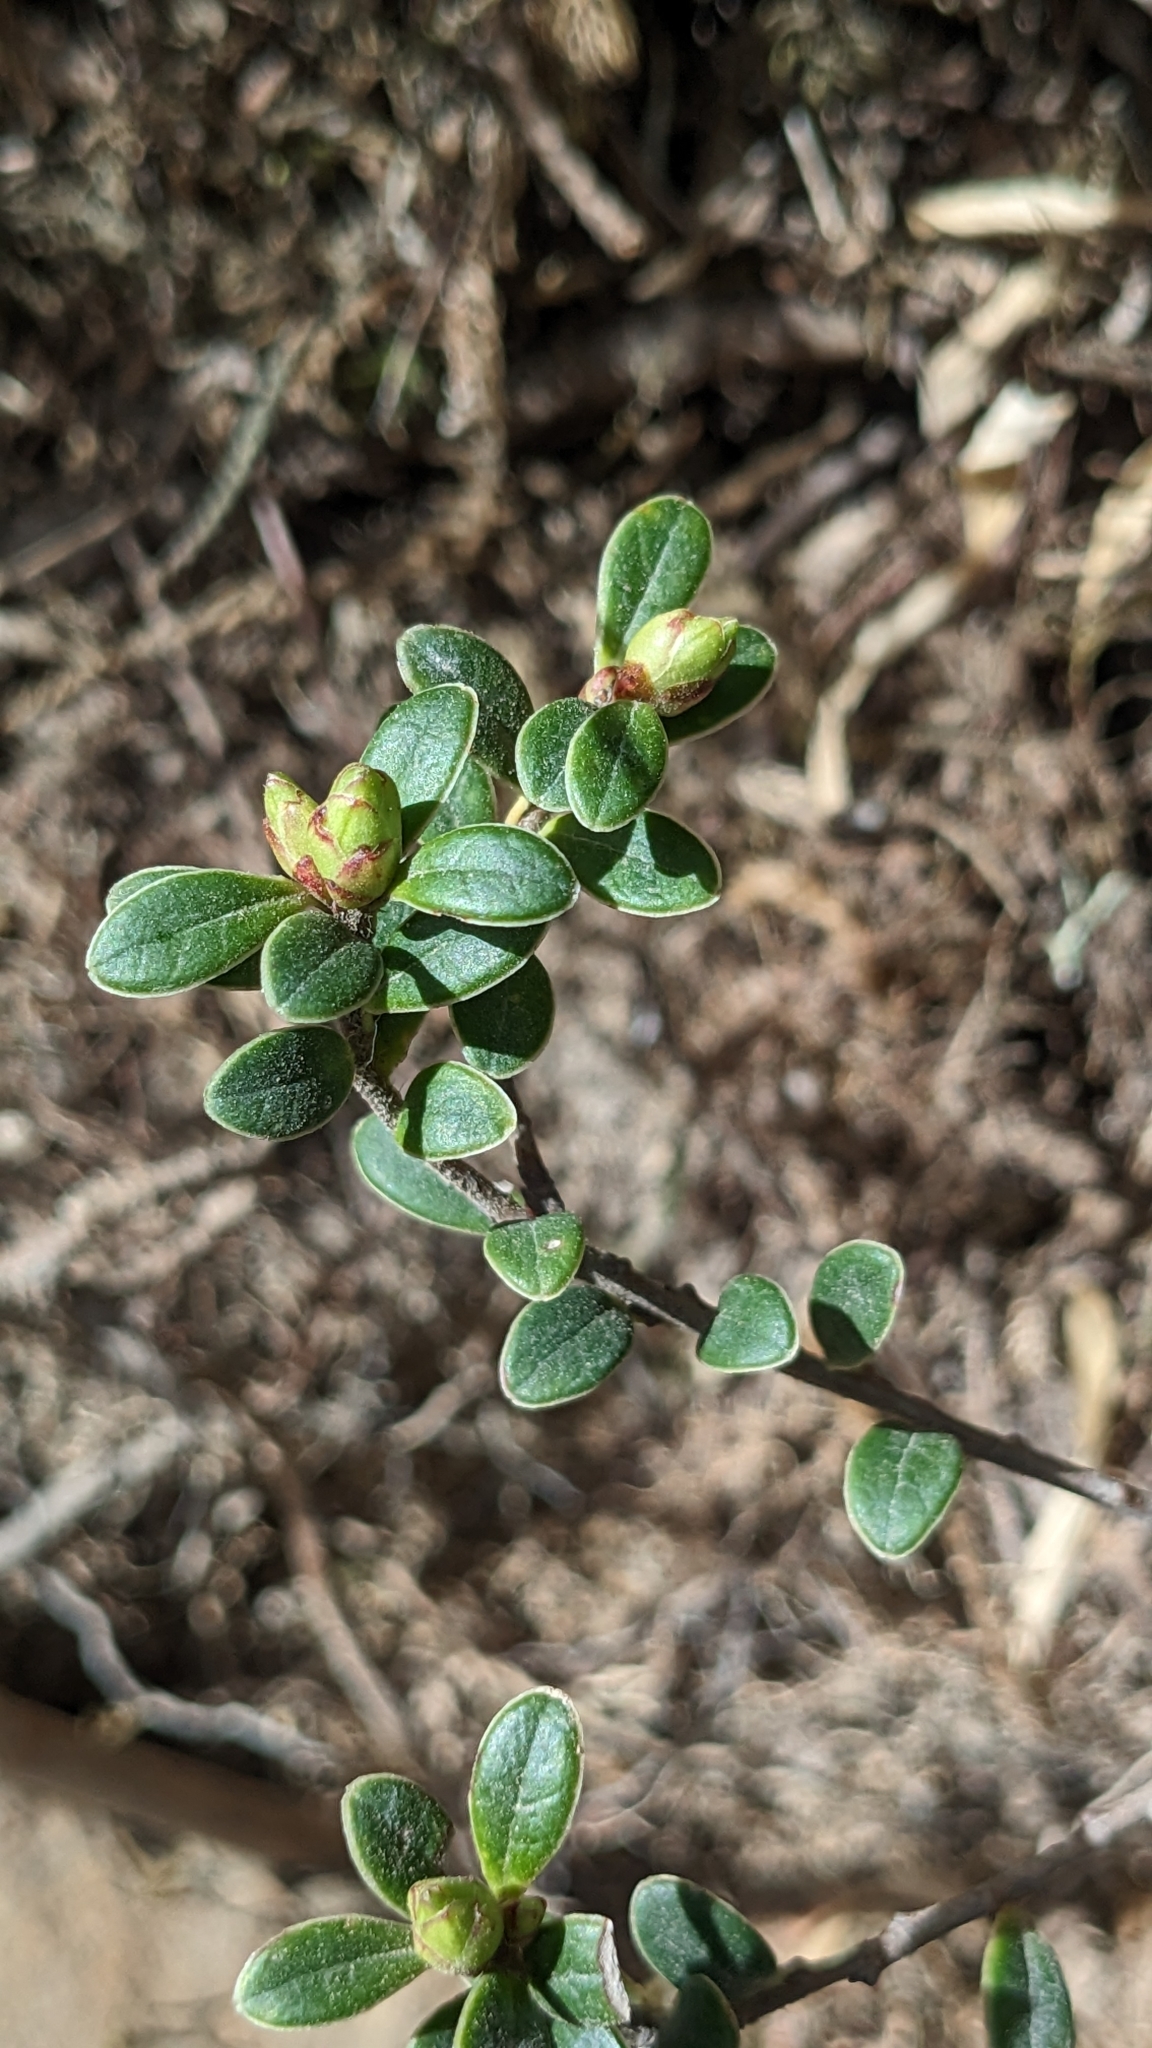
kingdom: Plantae
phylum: Tracheophyta
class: Magnoliopsida
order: Ericales
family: Ericaceae
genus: Vaccinium
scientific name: Vaccinium delavayi
